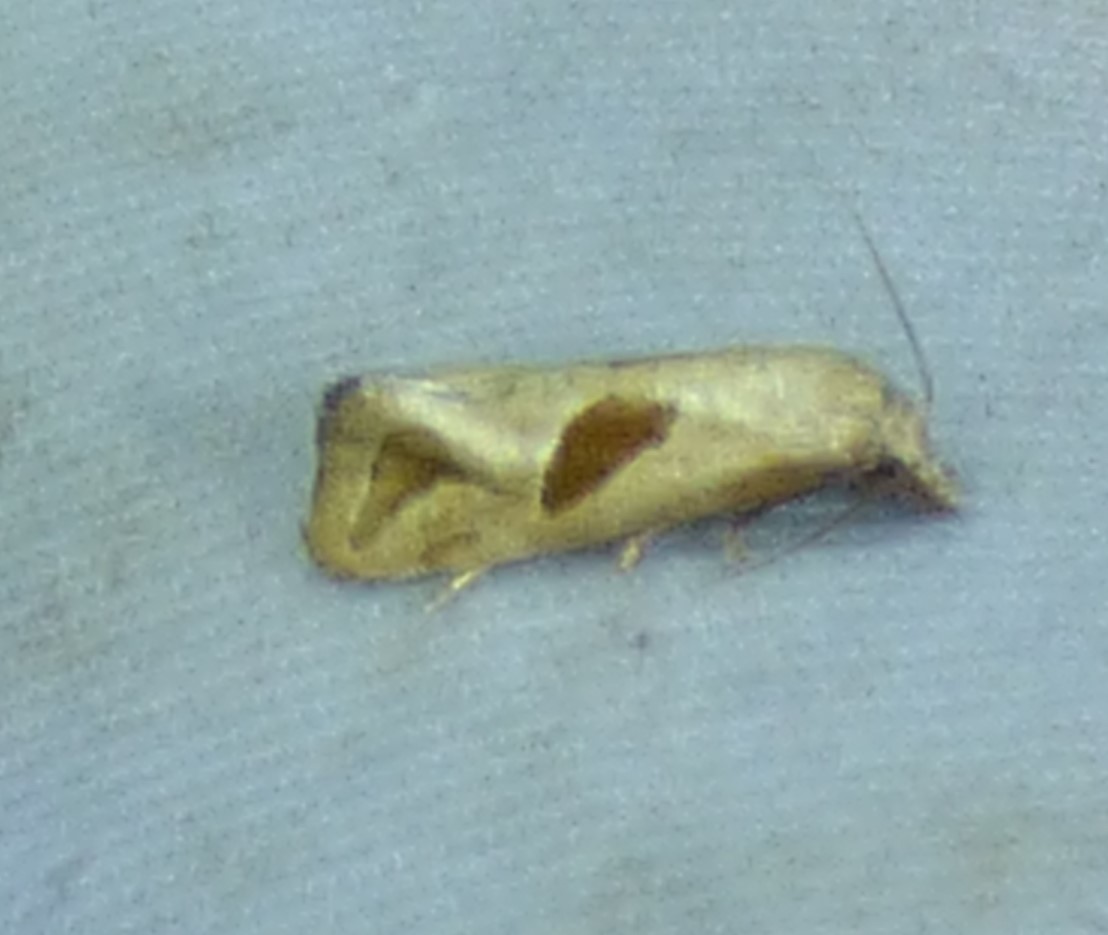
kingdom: Animalia
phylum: Arthropoda
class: Insecta
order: Lepidoptera
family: Tortricidae
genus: Eugnosta
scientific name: Eugnosta sartana
